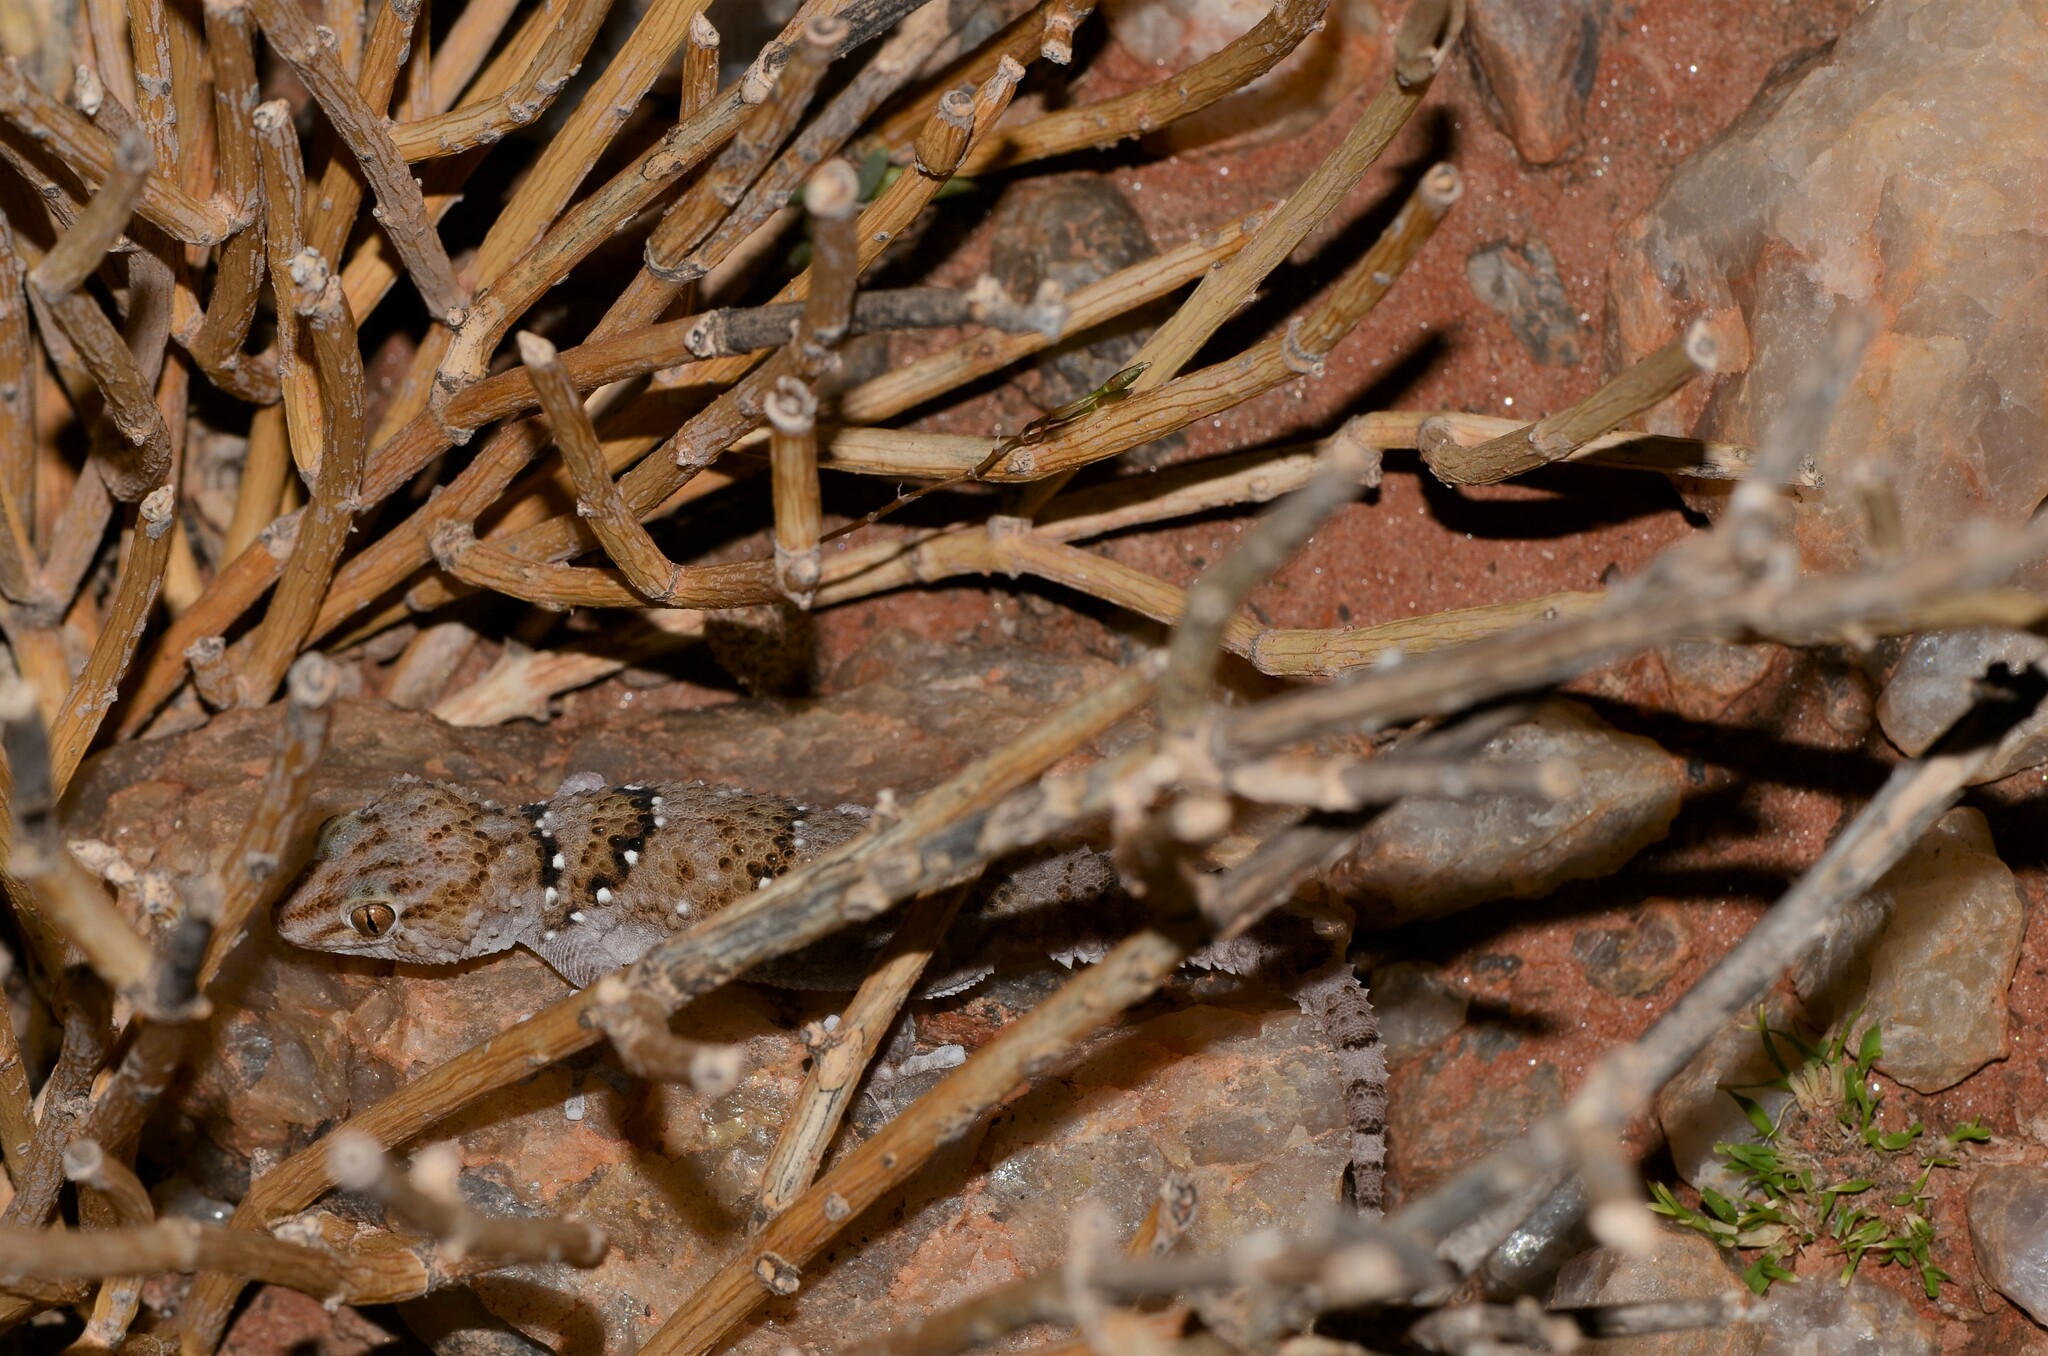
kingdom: Animalia
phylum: Chordata
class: Squamata
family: Gekkonidae
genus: Chondrodactylus
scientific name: Chondrodactylus laevigatus
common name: Fischer's thick-toed gecko
